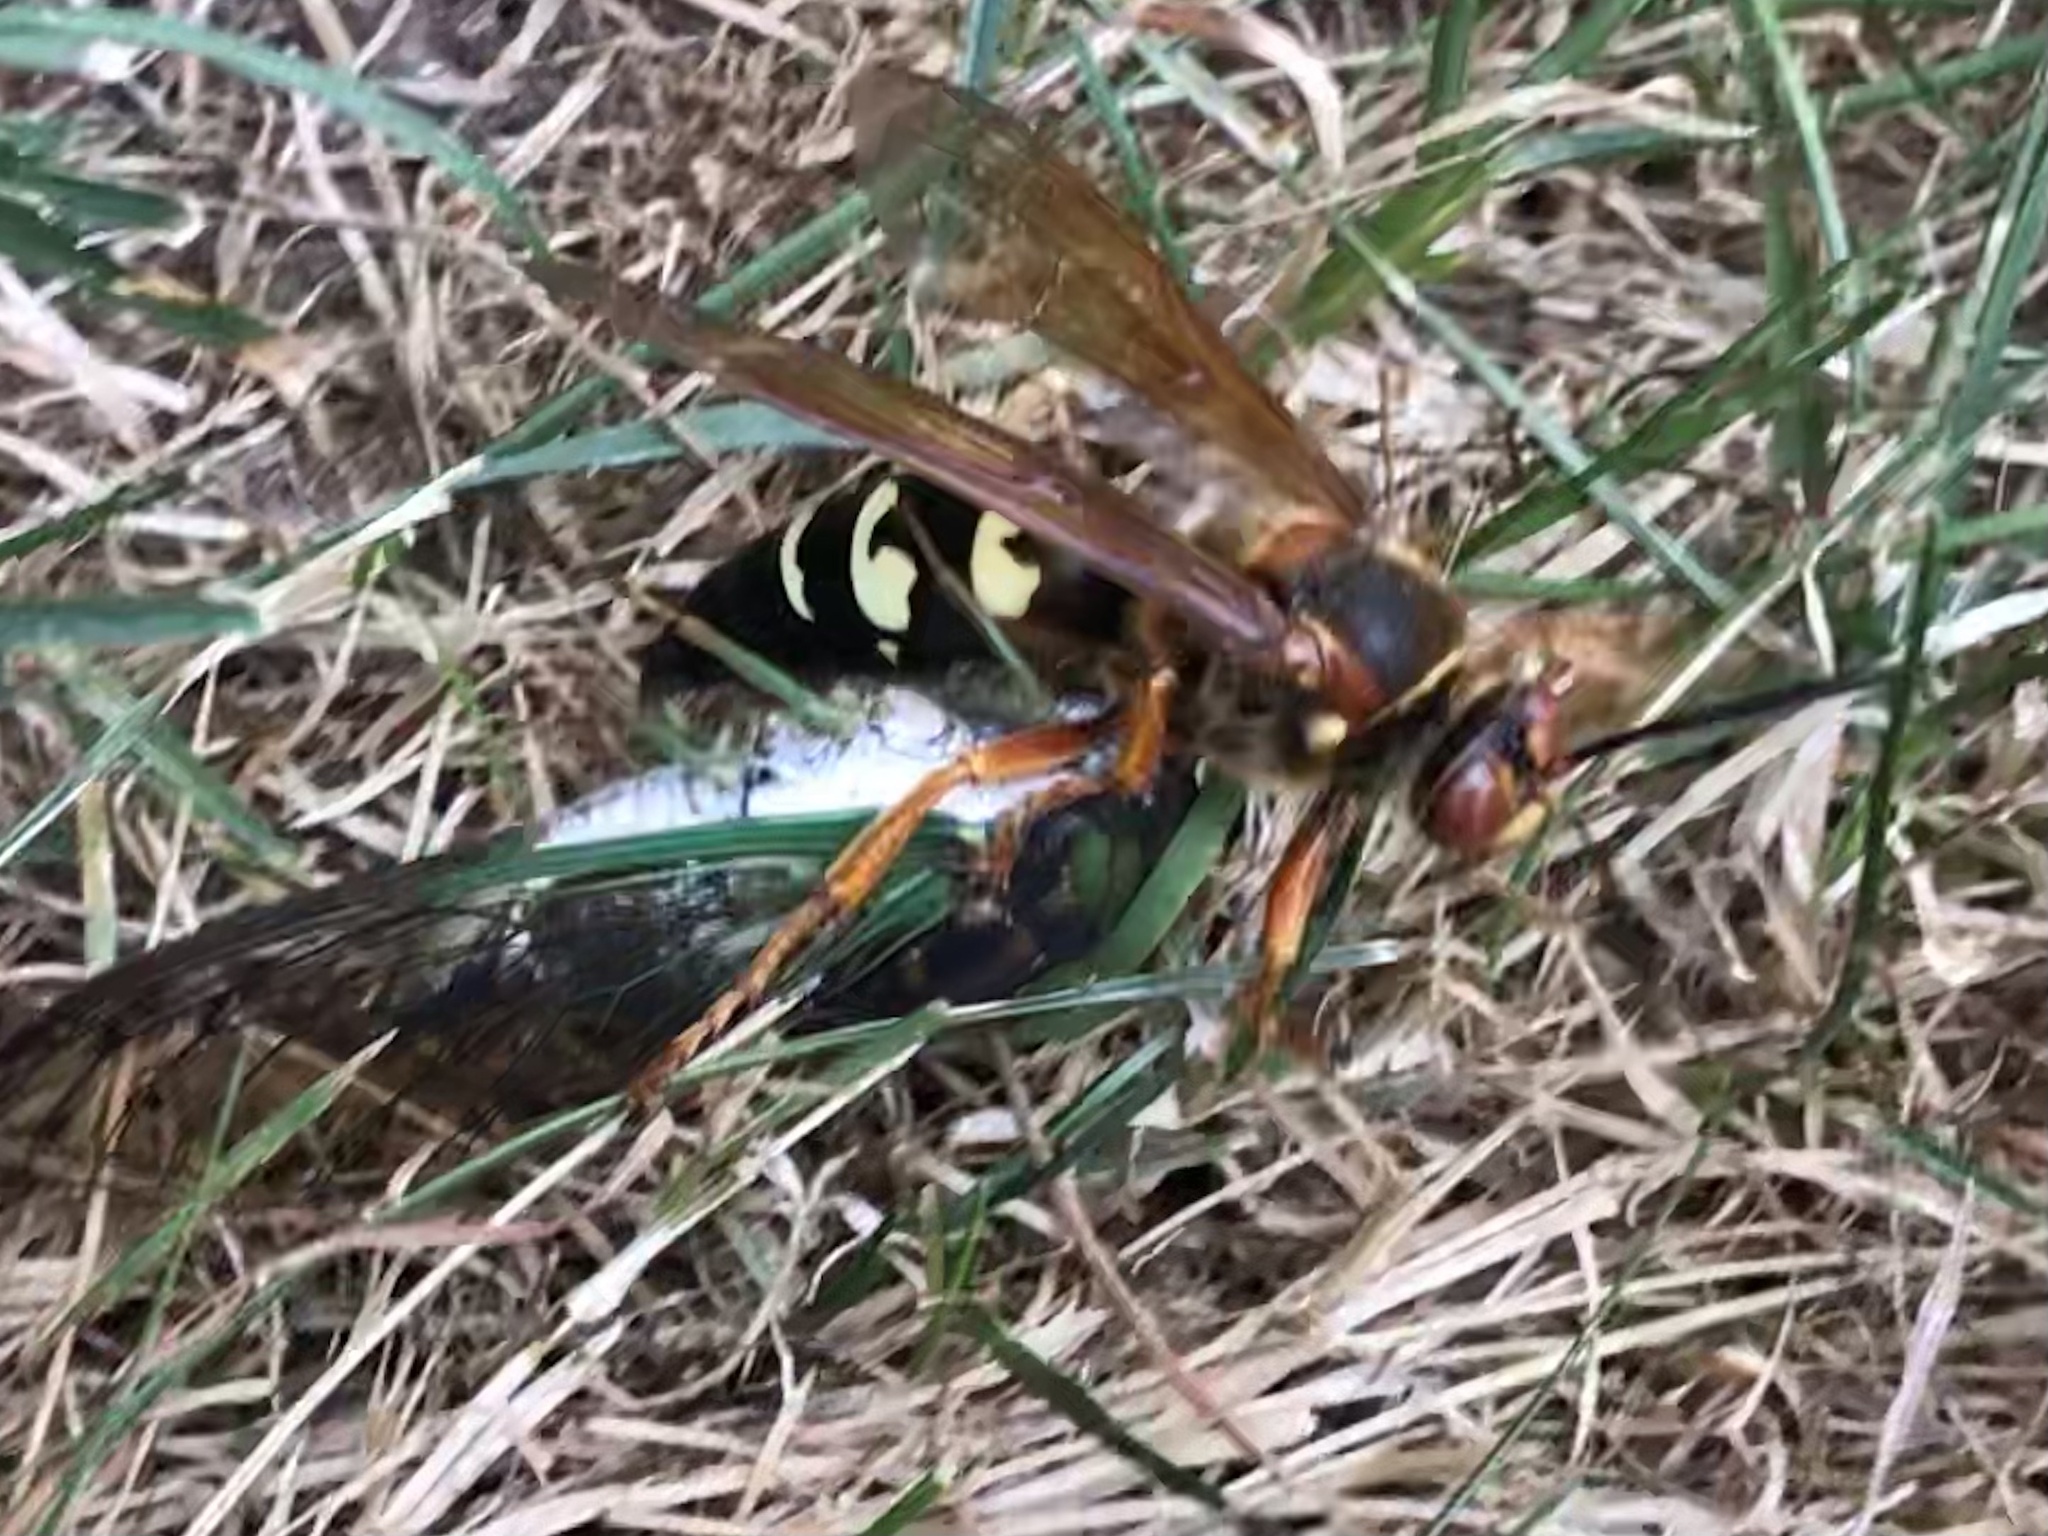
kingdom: Animalia
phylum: Arthropoda
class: Insecta
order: Hymenoptera
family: Crabronidae
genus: Sphecius
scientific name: Sphecius speciosus
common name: Cicada killer
